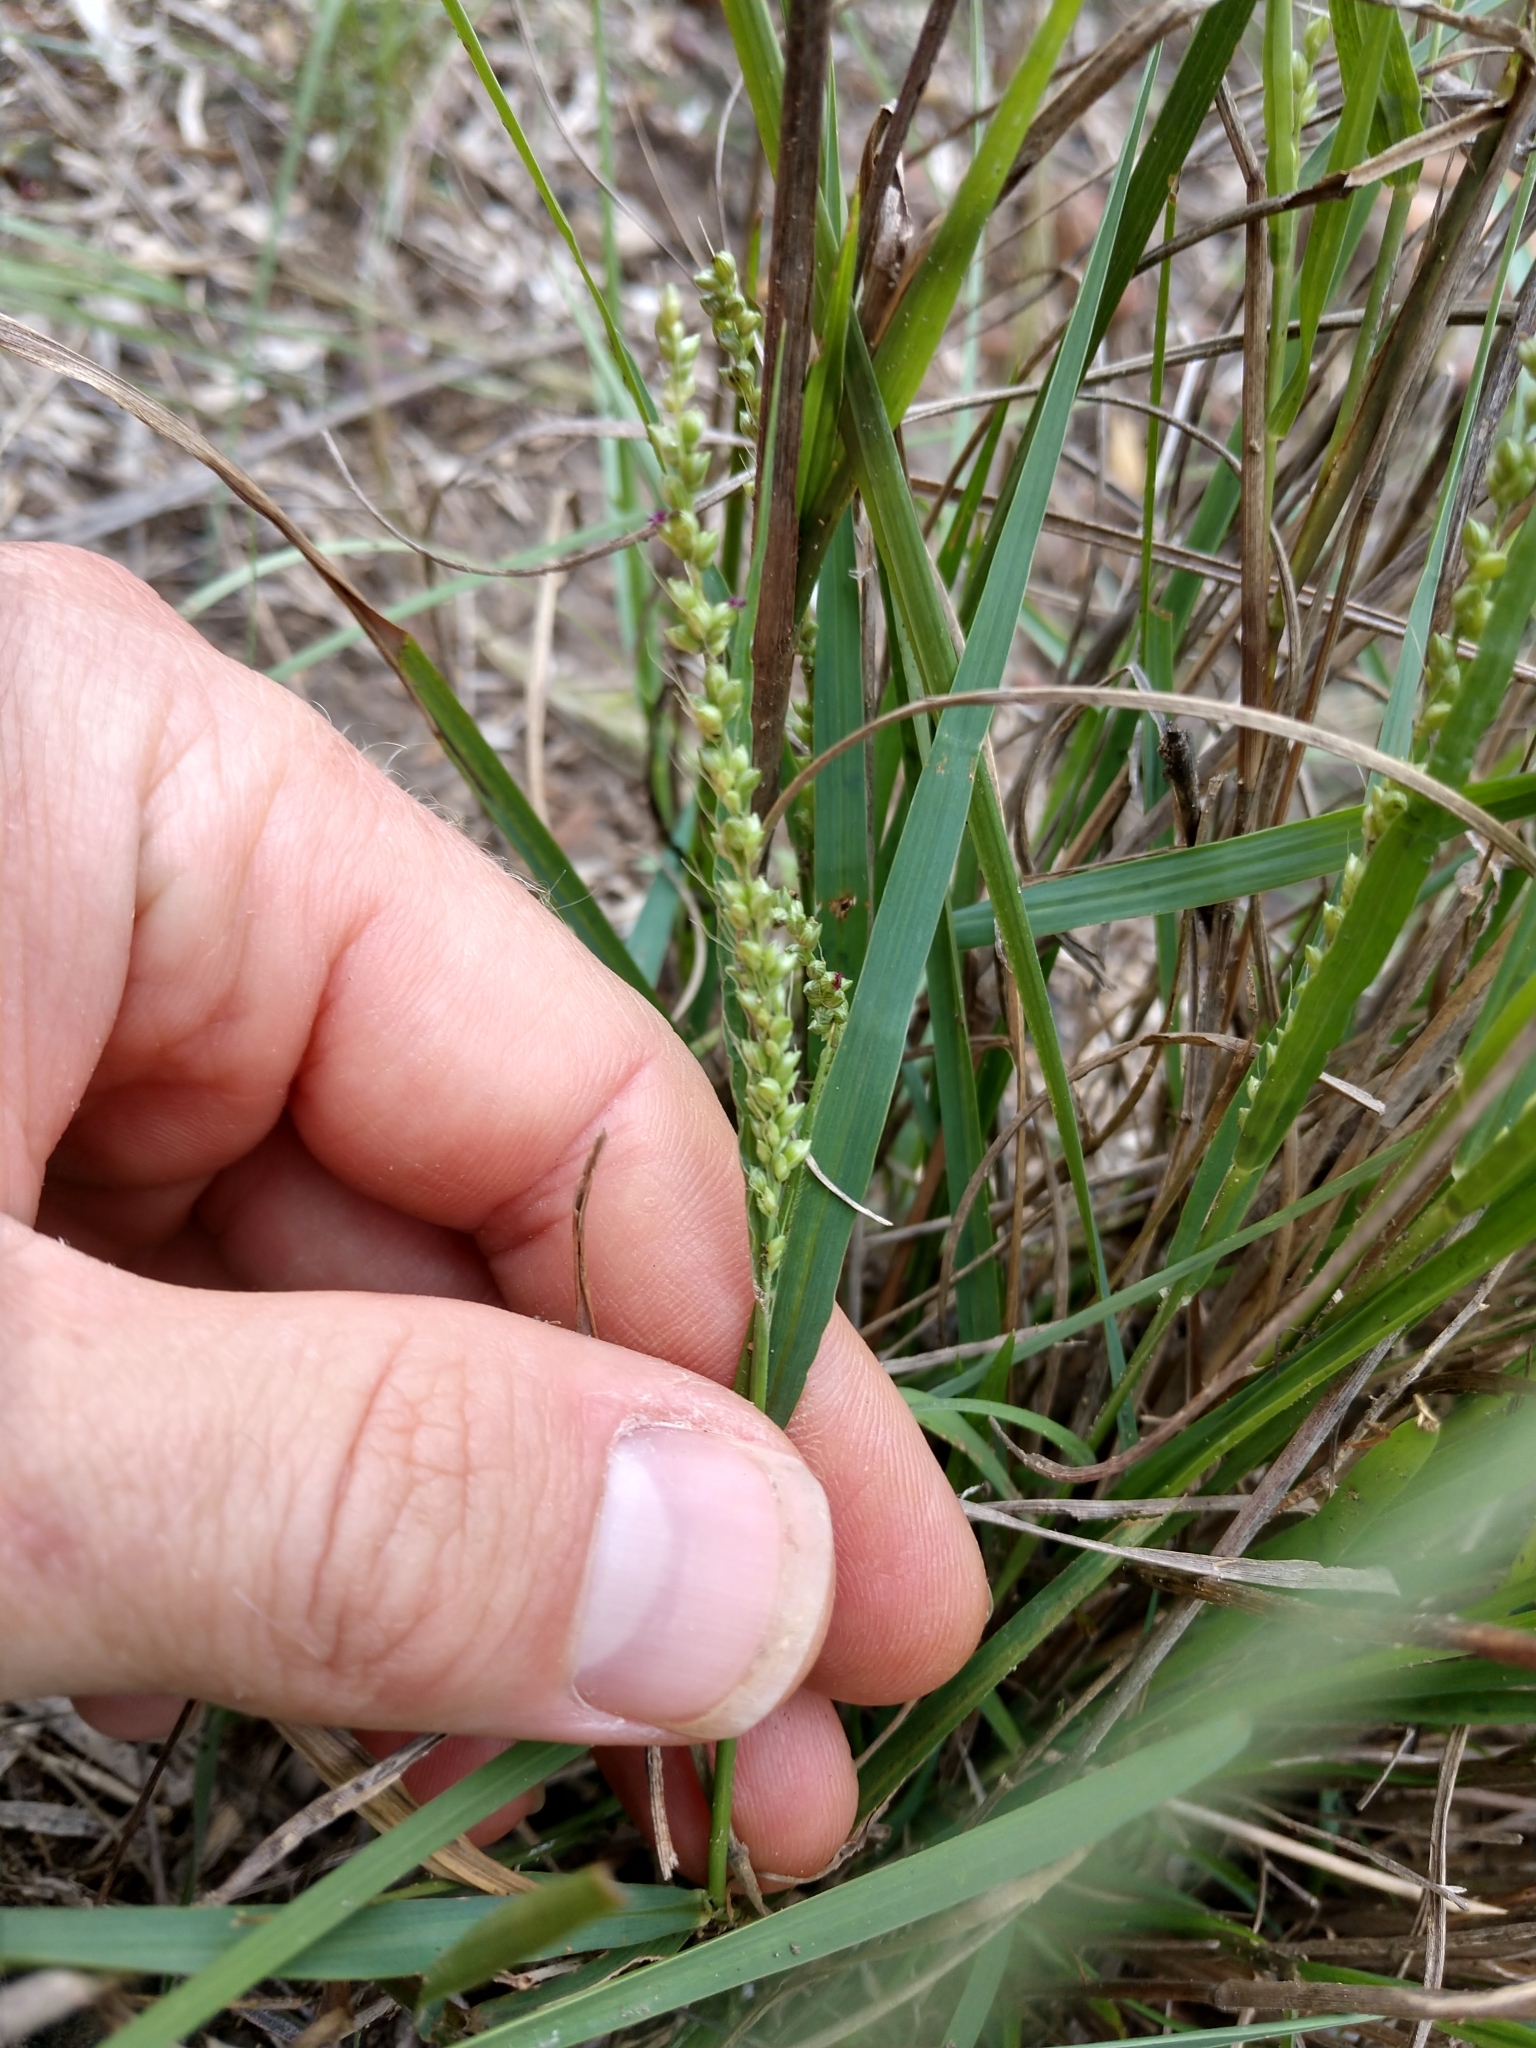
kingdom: Plantae
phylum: Tracheophyta
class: Liliopsida
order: Poales
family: Poaceae
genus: Setaria
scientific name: Setaria leucopila
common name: Plains bristle grass
